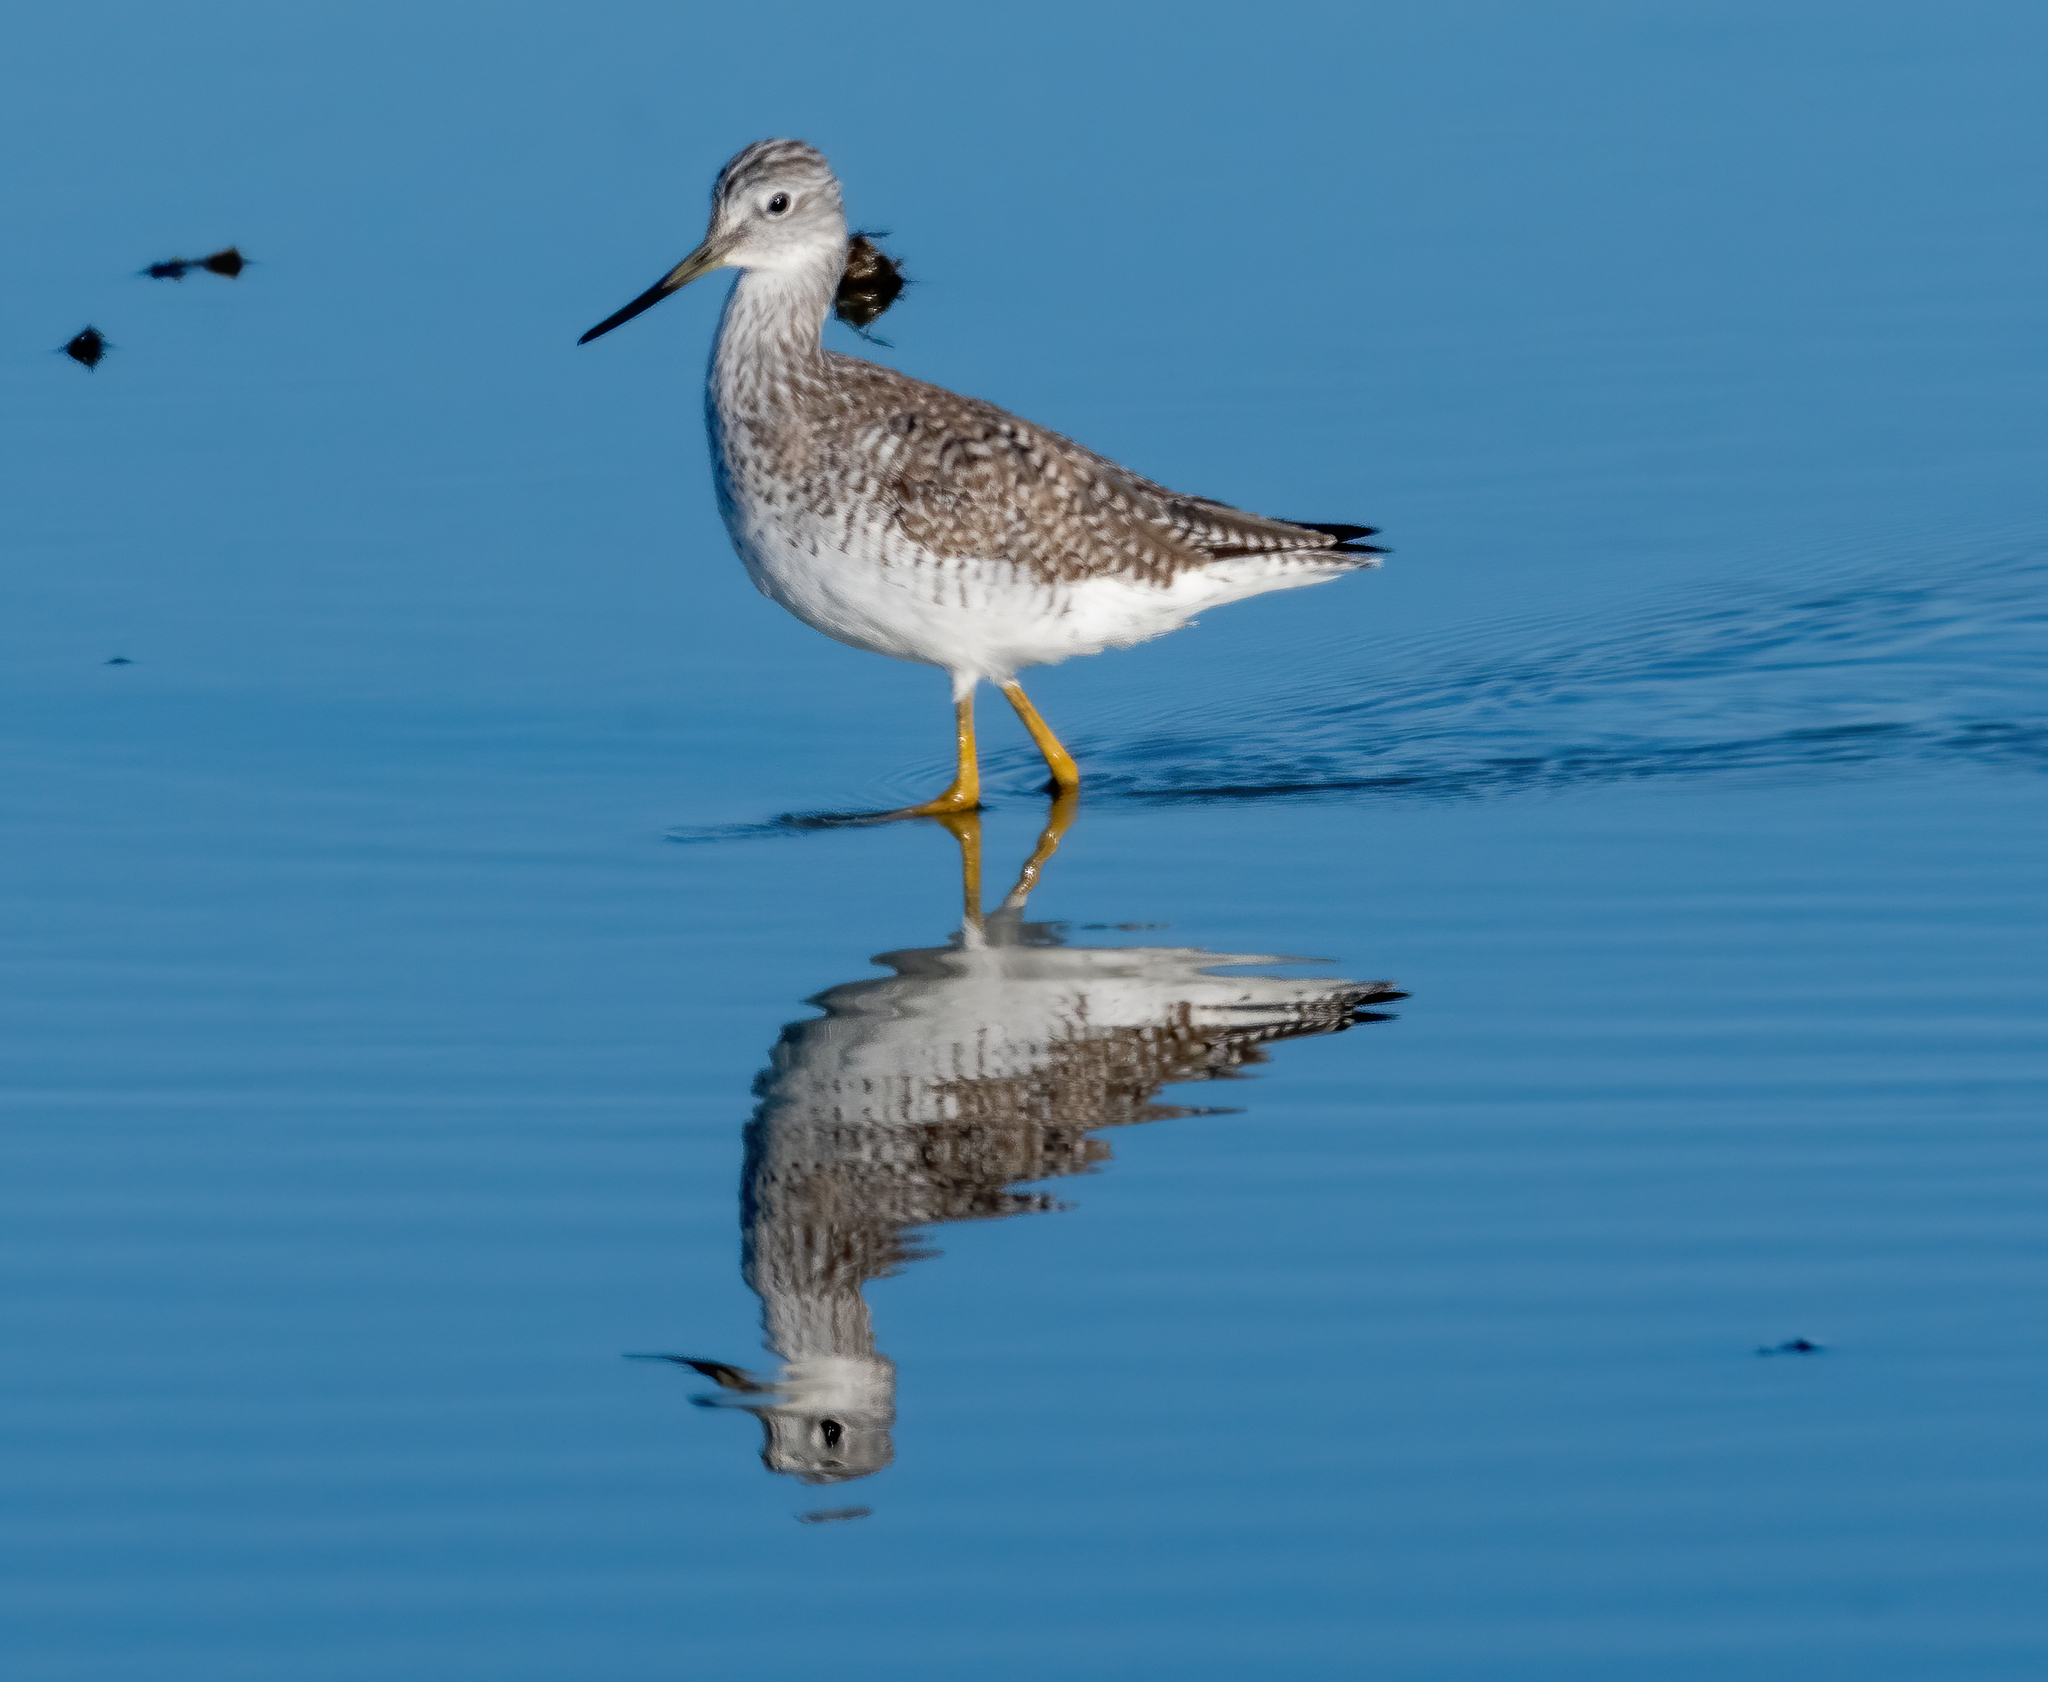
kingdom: Animalia
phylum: Chordata
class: Aves
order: Charadriiformes
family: Scolopacidae
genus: Tringa
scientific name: Tringa melanoleuca
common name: Greater yellowlegs
